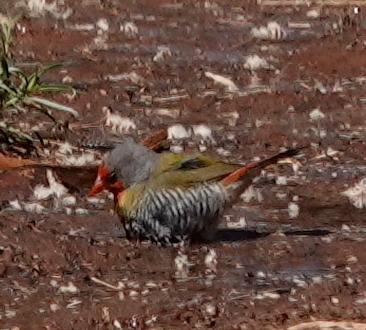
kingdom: Animalia
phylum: Chordata
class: Aves
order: Passeriformes
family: Estrildidae
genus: Pytilia
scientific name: Pytilia melba
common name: Green-winged pytilia
